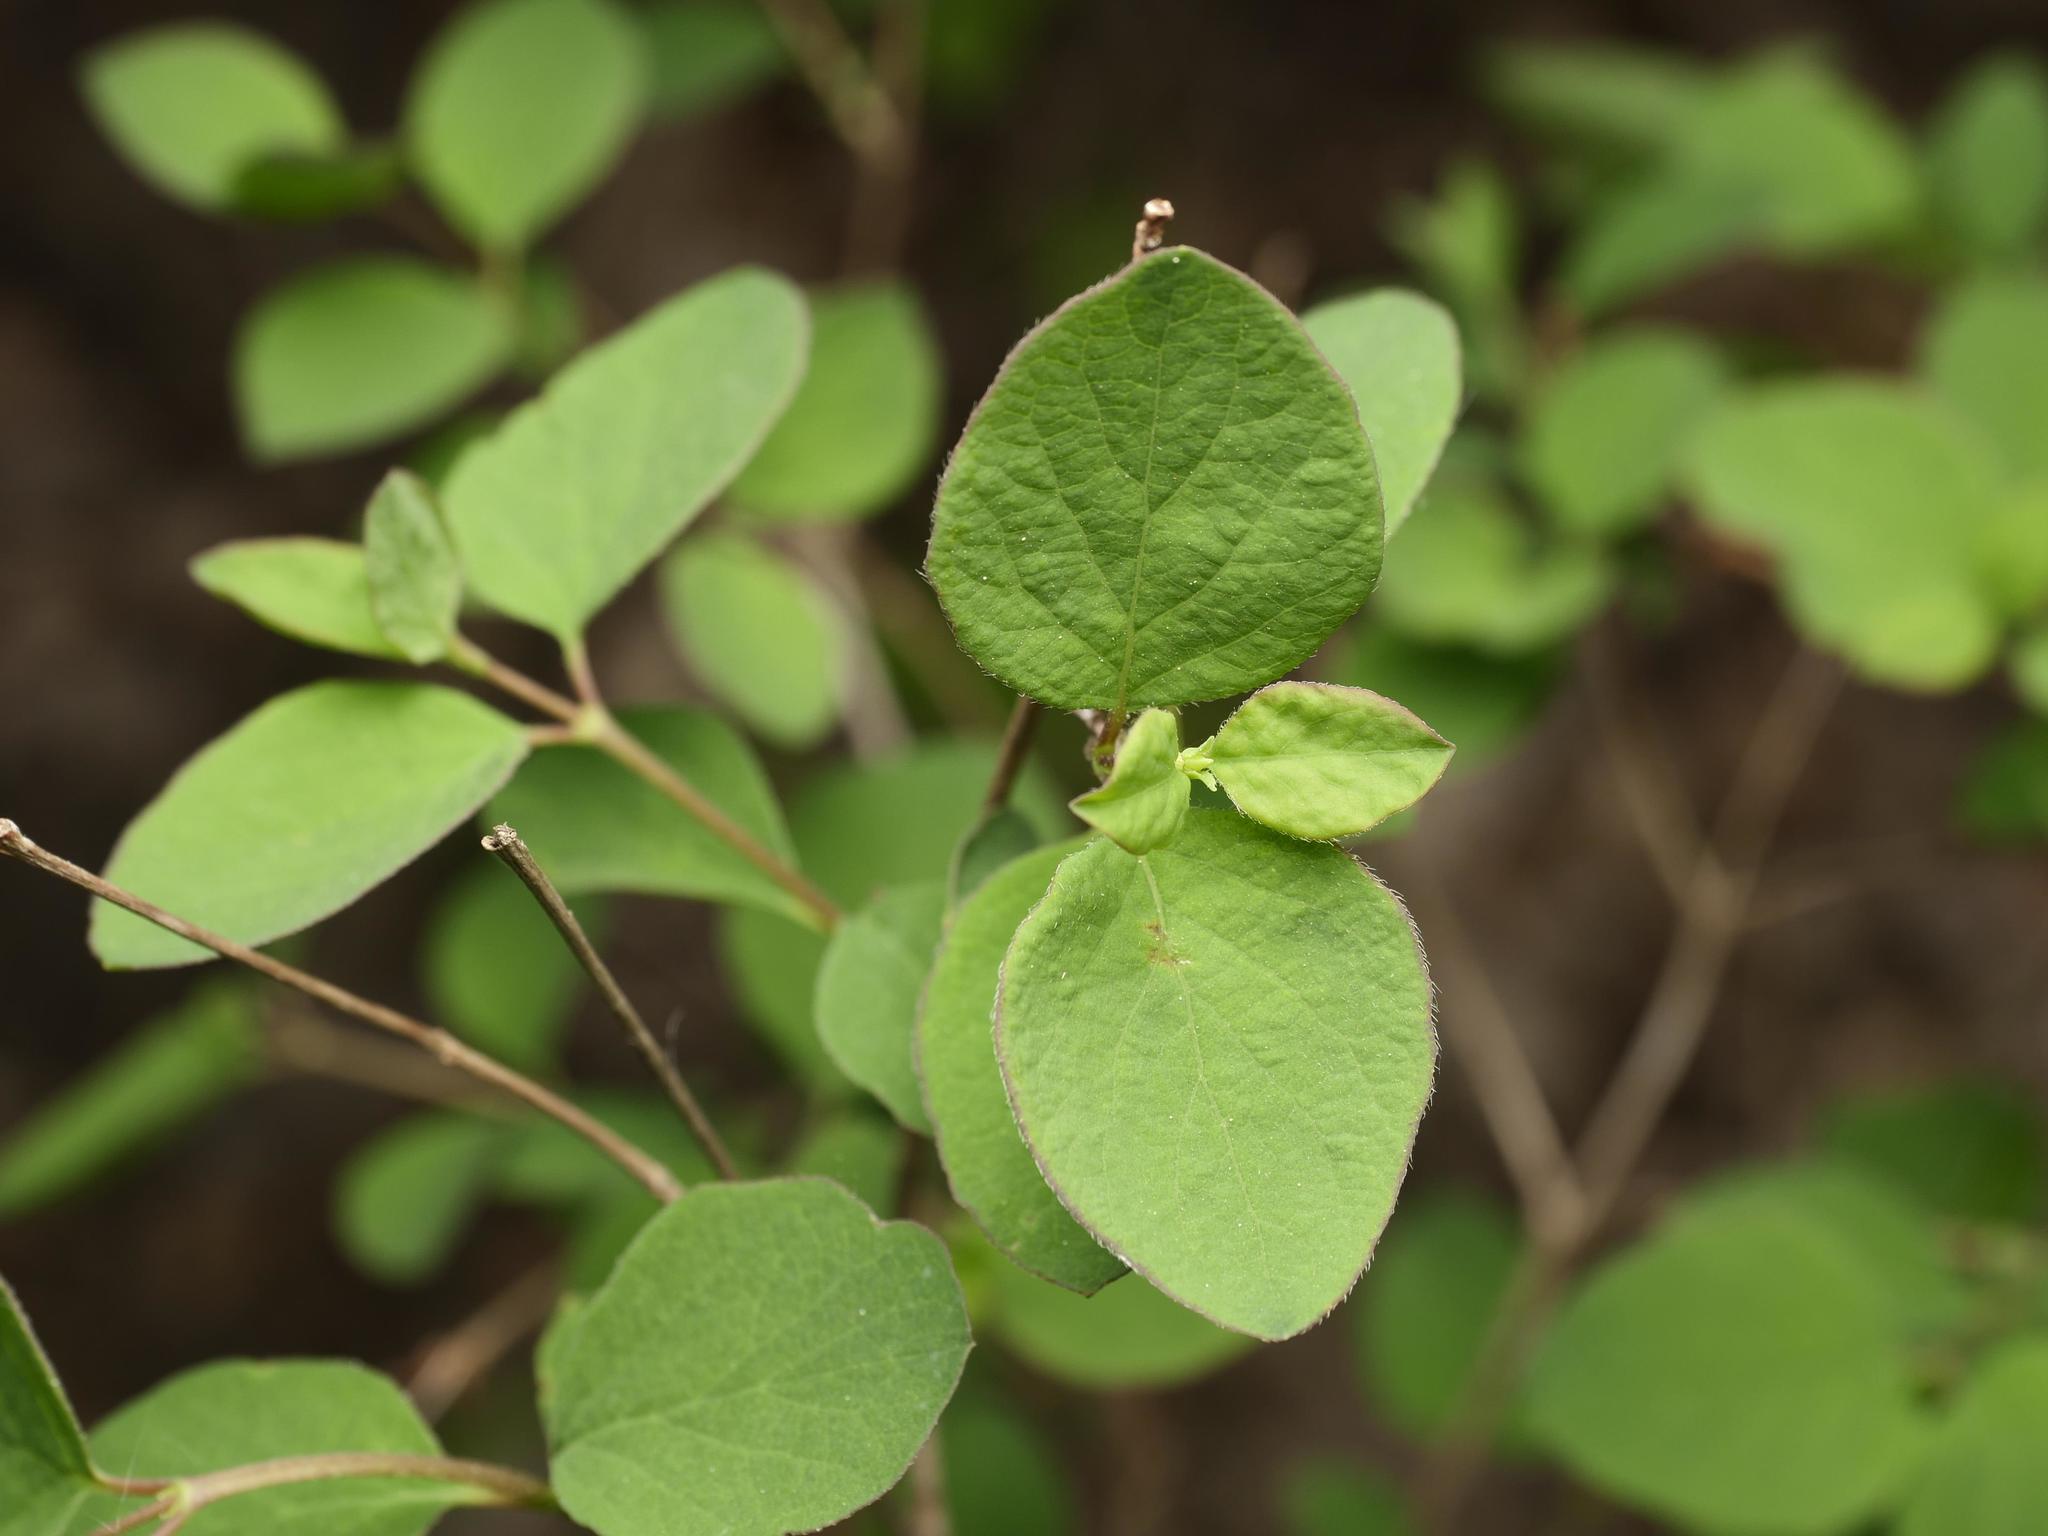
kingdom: Plantae
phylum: Tracheophyta
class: Magnoliopsida
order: Dipsacales
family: Caprifoliaceae
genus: Symphoricarpos
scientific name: Symphoricarpos albus
